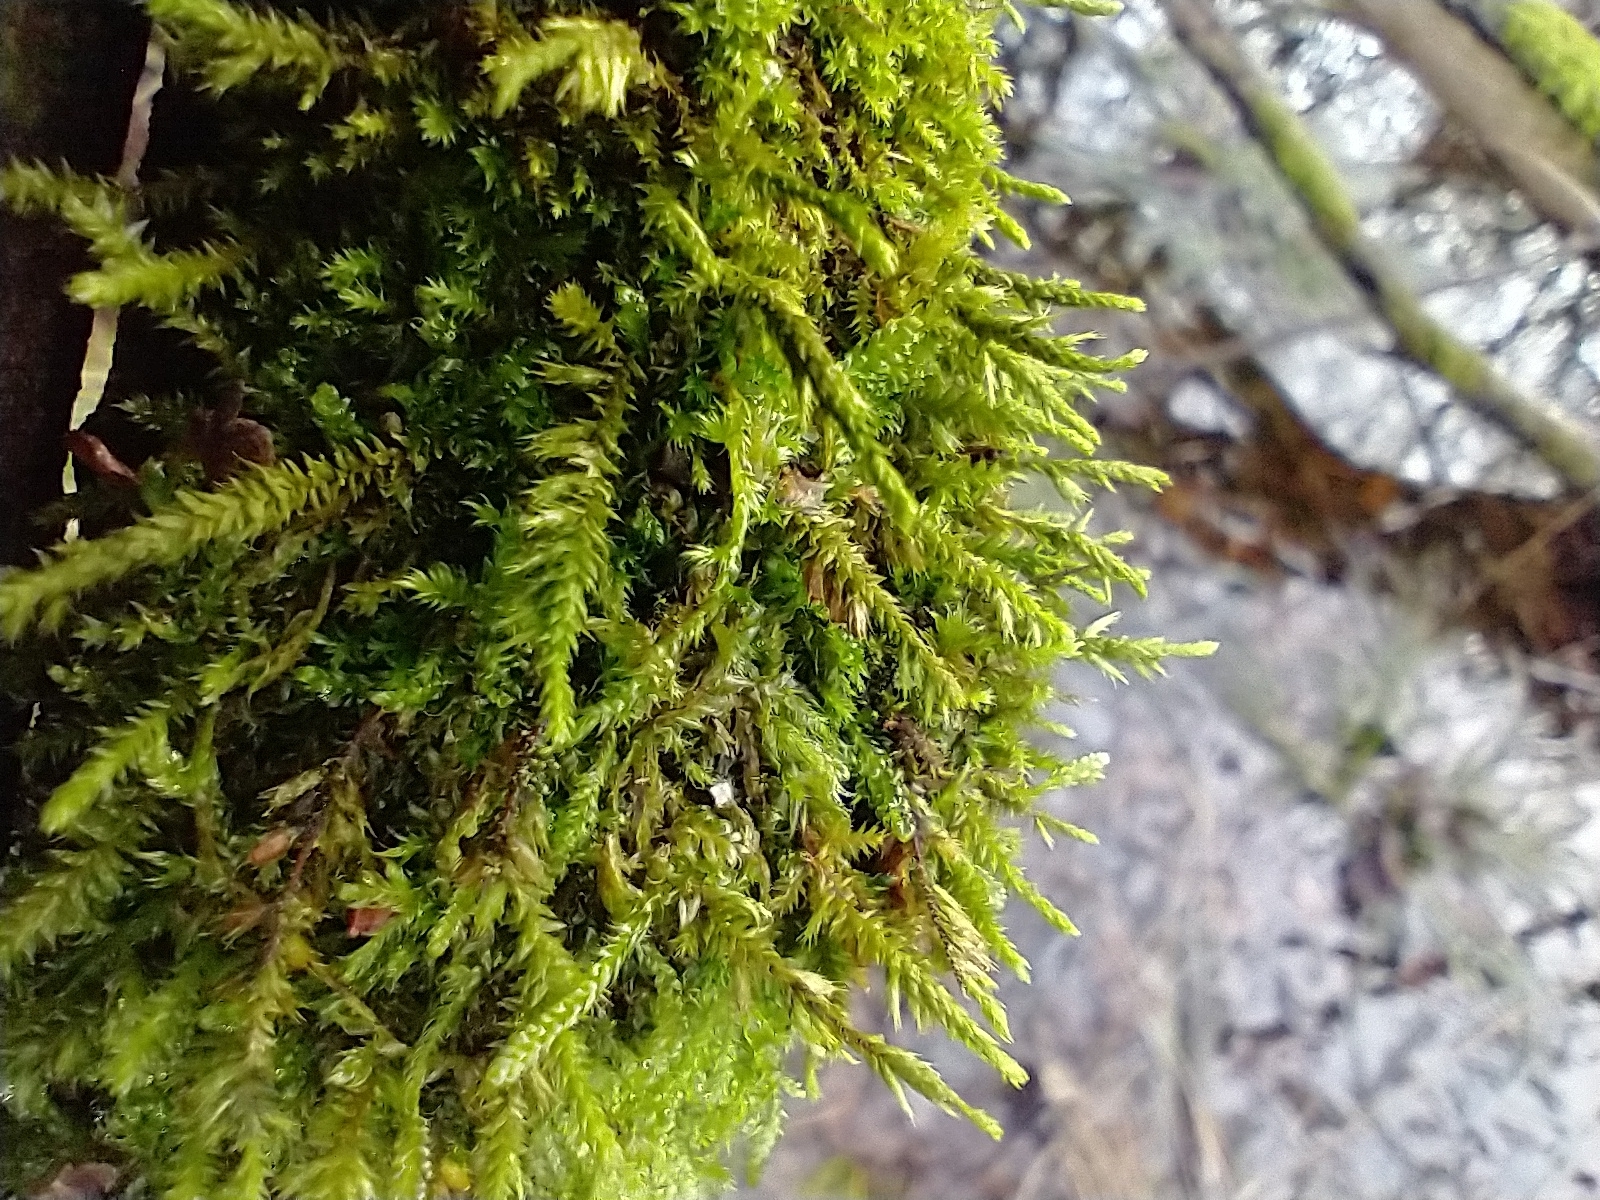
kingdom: Plantae
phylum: Bryophyta
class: Bryopsida
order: Hypnales
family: Cryphaeaceae
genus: Cryphaea
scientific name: Cryphaea heteromalla
